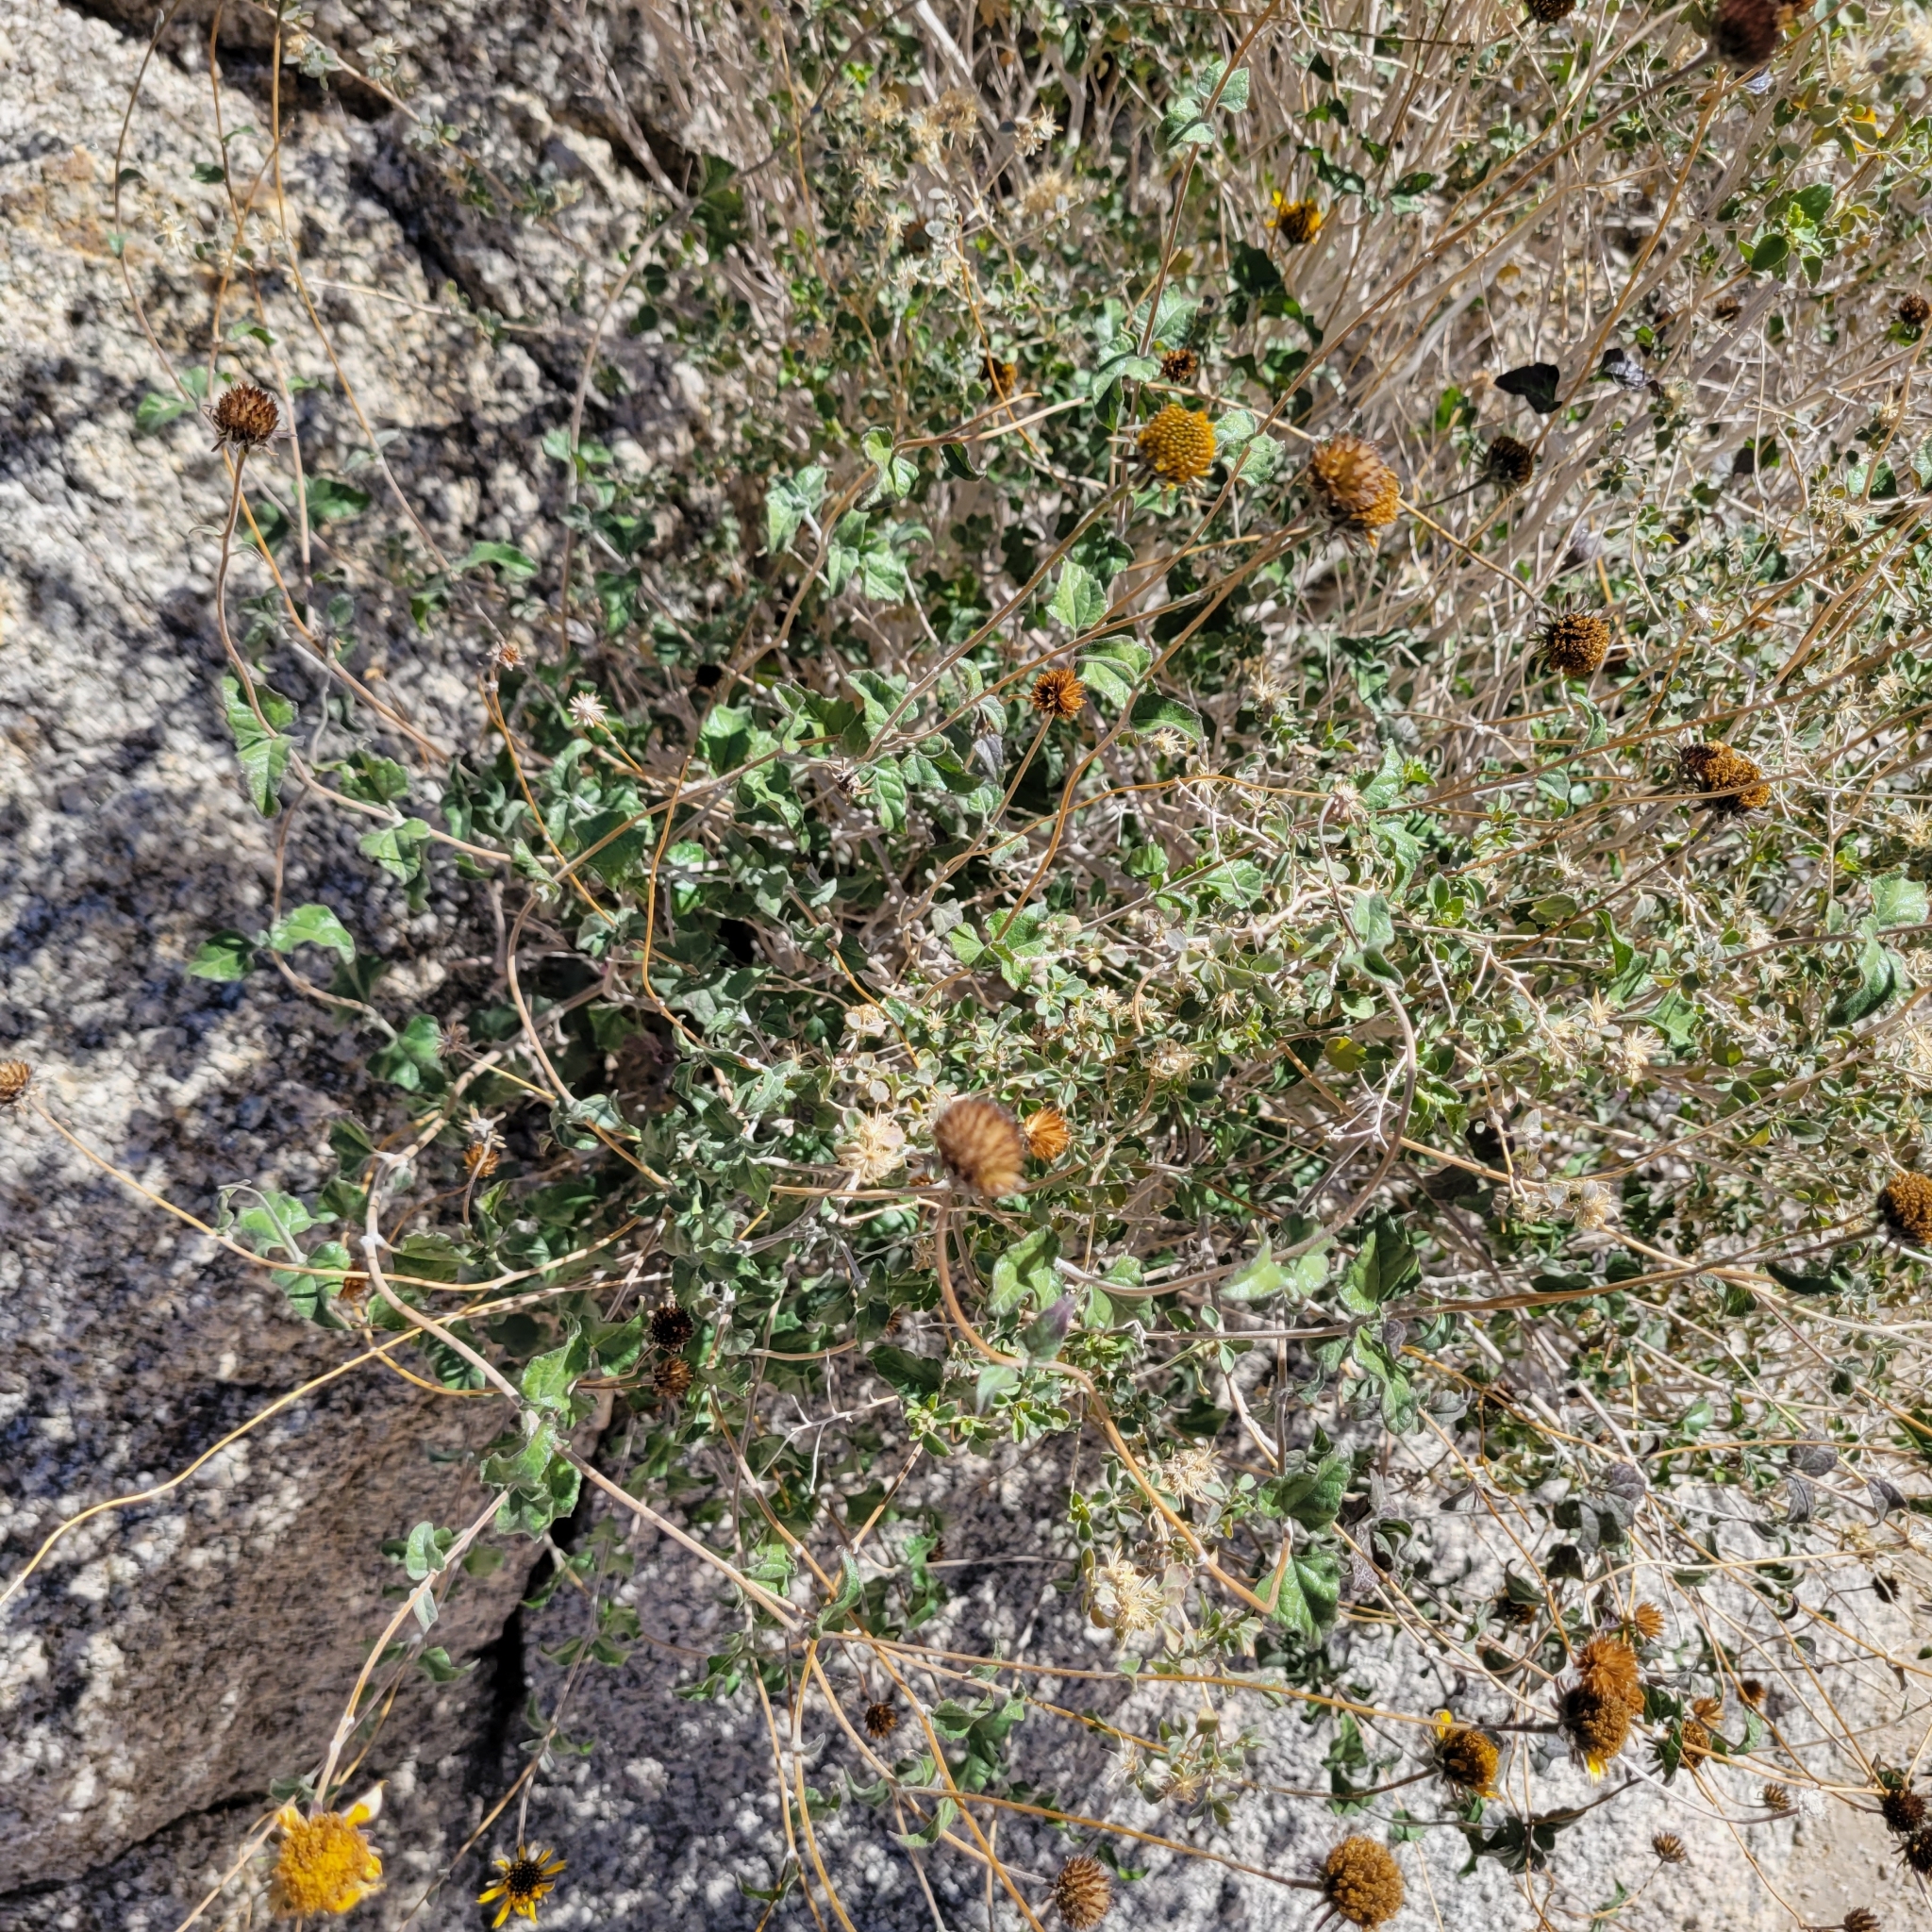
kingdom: Plantae
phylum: Tracheophyta
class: Magnoliopsida
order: Asterales
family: Asteraceae
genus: Bahiopsis
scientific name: Bahiopsis parishii
